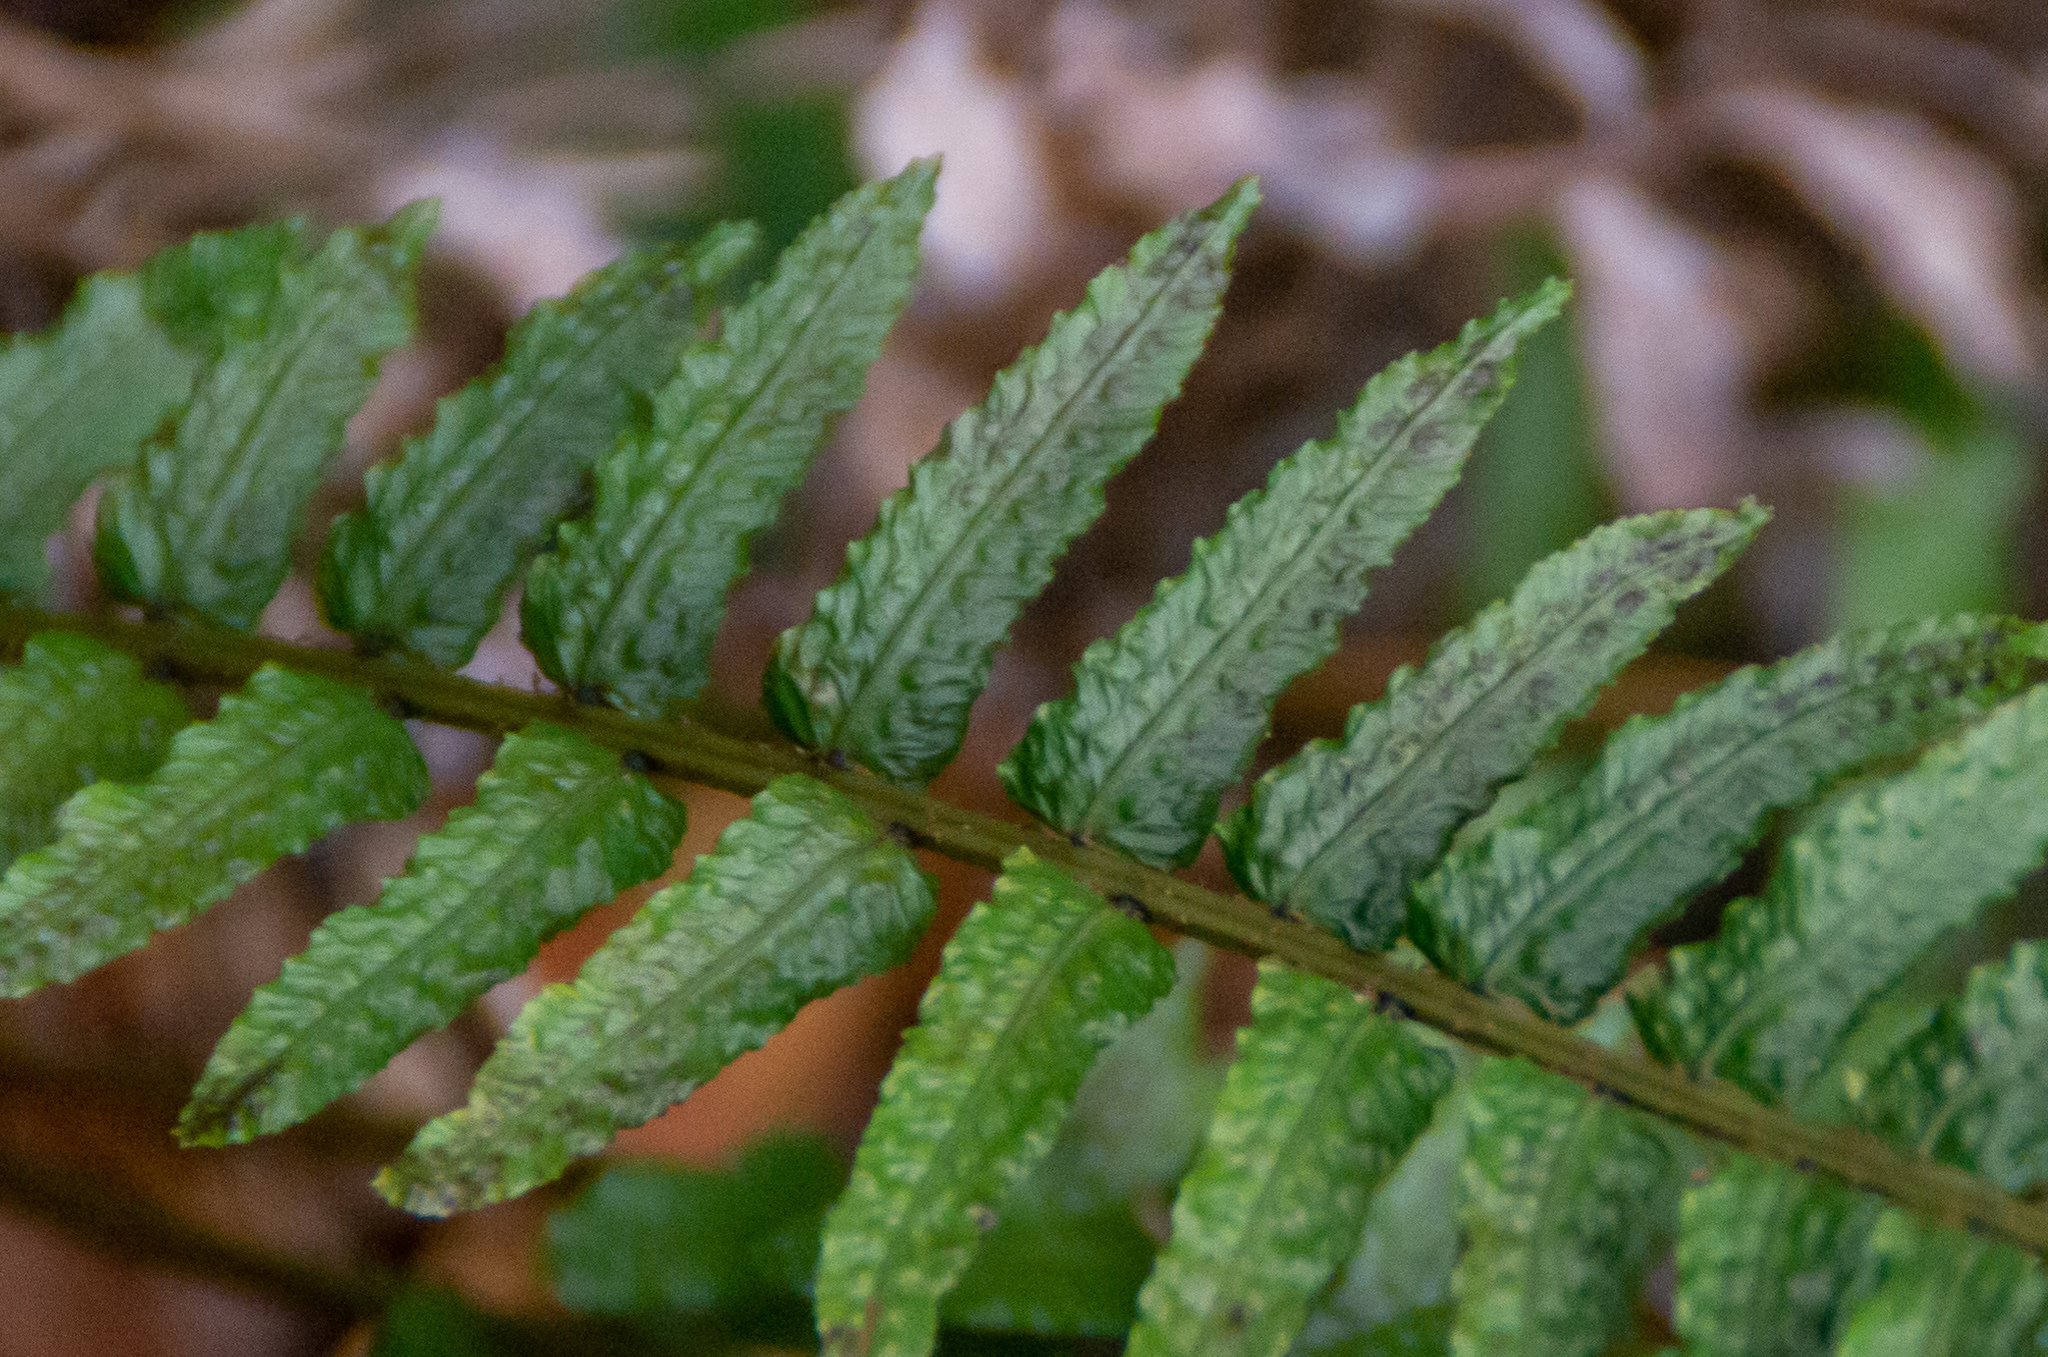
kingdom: Plantae
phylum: Tracheophyta
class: Polypodiopsida
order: Polypodiales
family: Blechnaceae
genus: Doodia
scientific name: Doodia kunthiana
